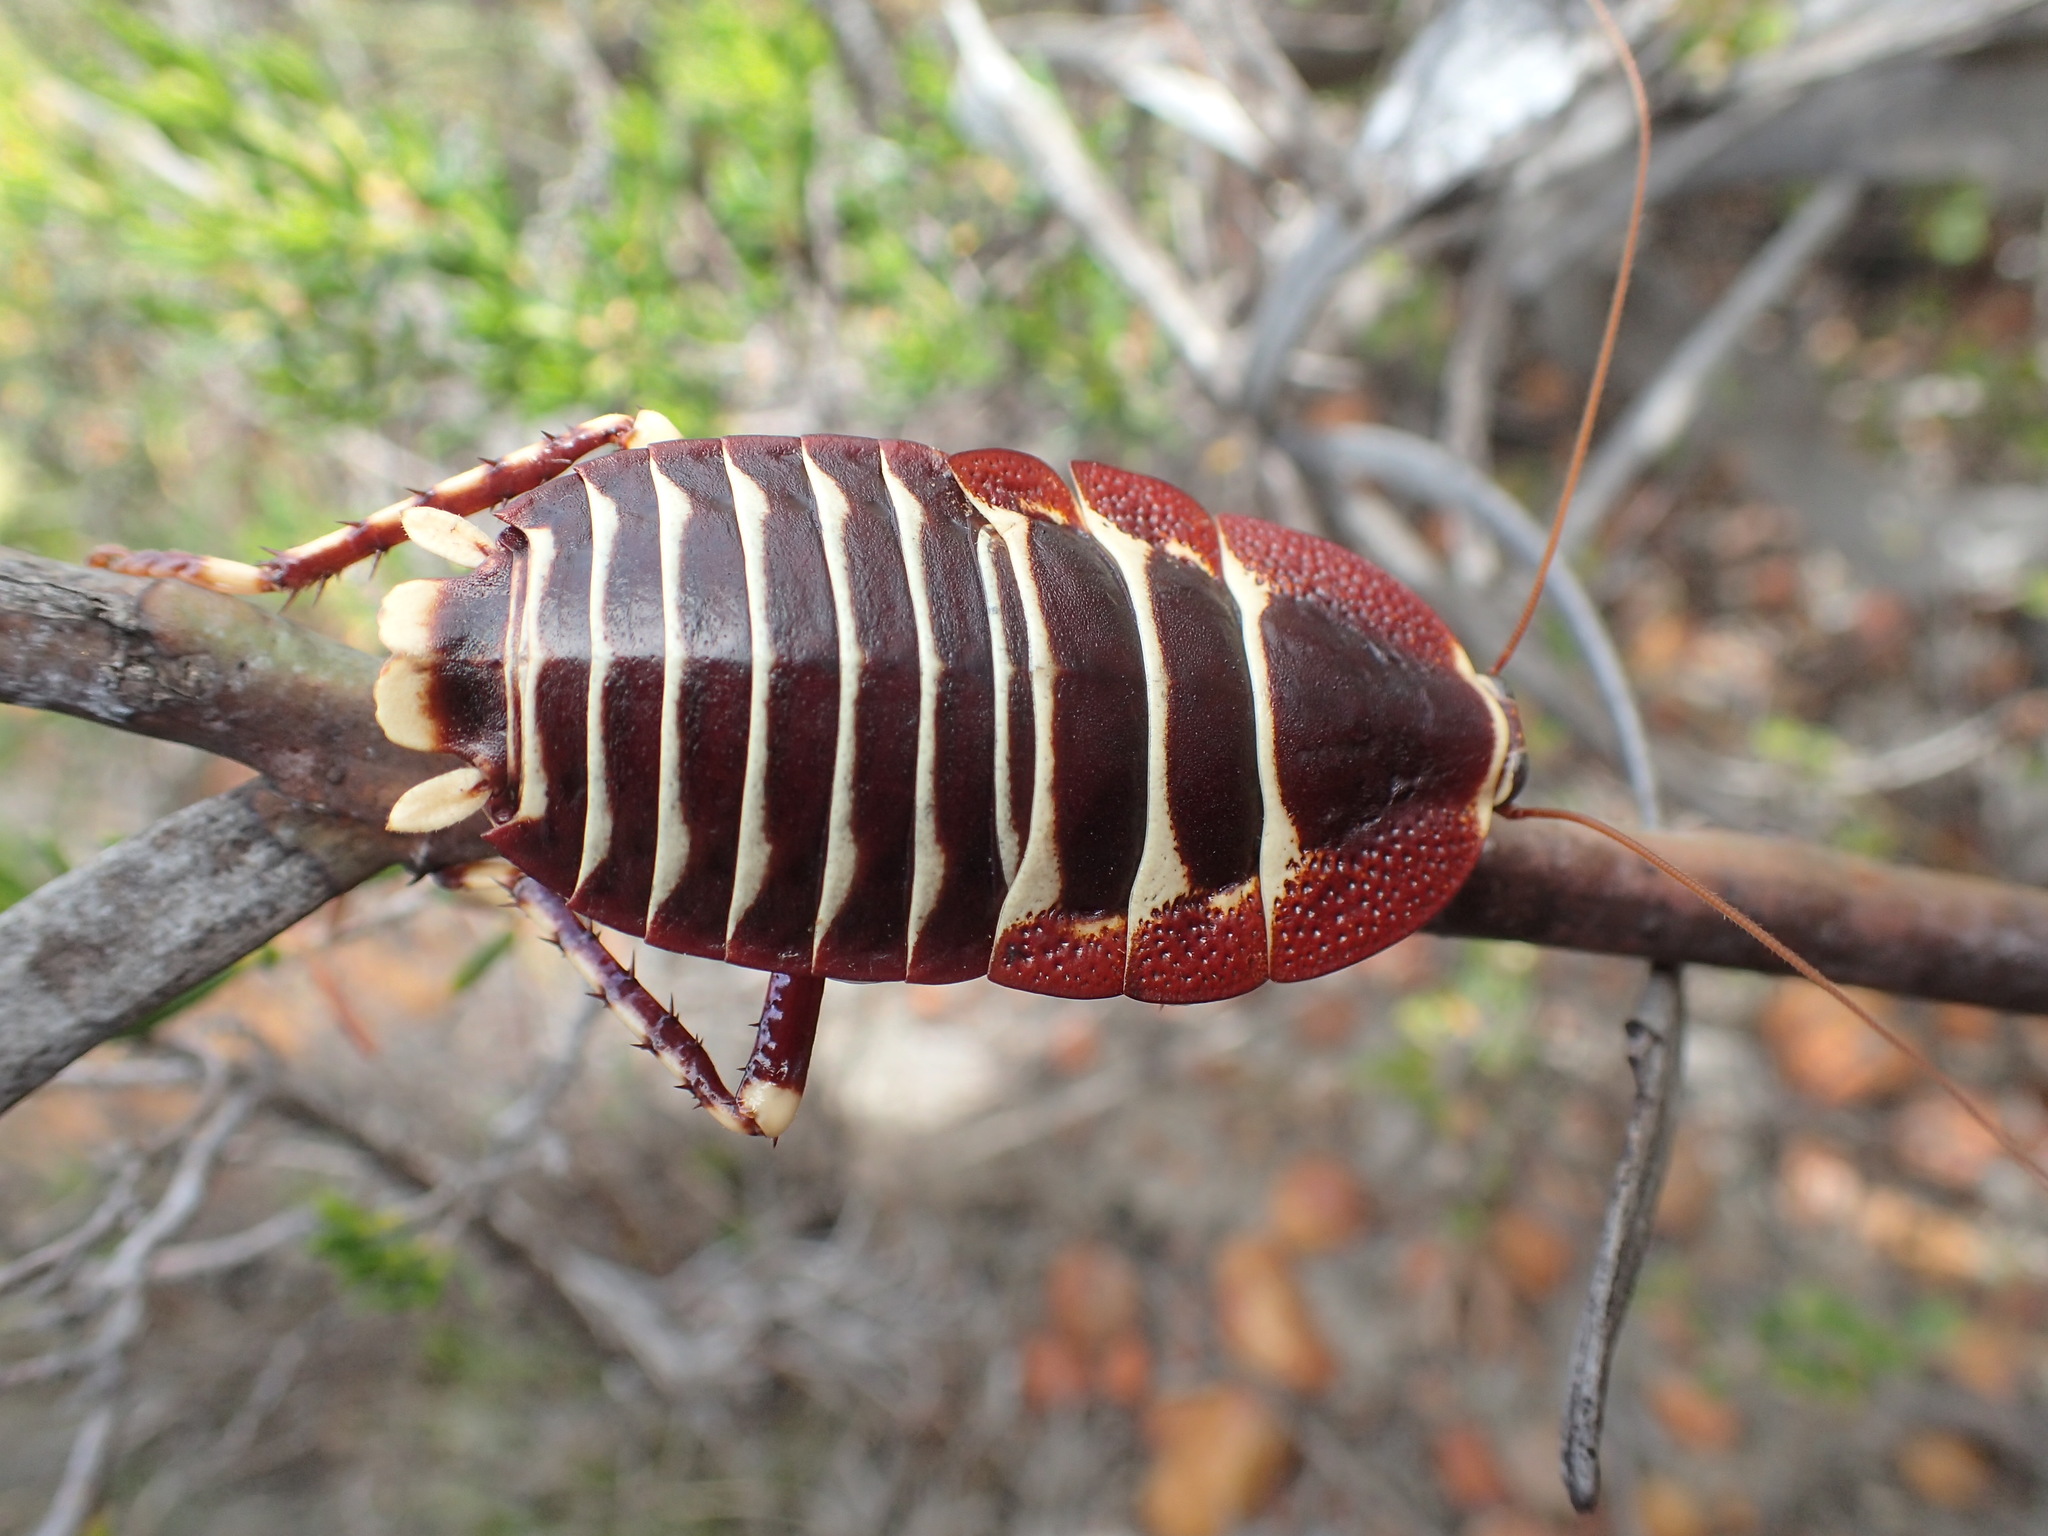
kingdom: Animalia
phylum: Arthropoda
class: Insecta
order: Blattodea
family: Blattidae
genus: Polyzosteria
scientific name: Polyzosteria pulchra
